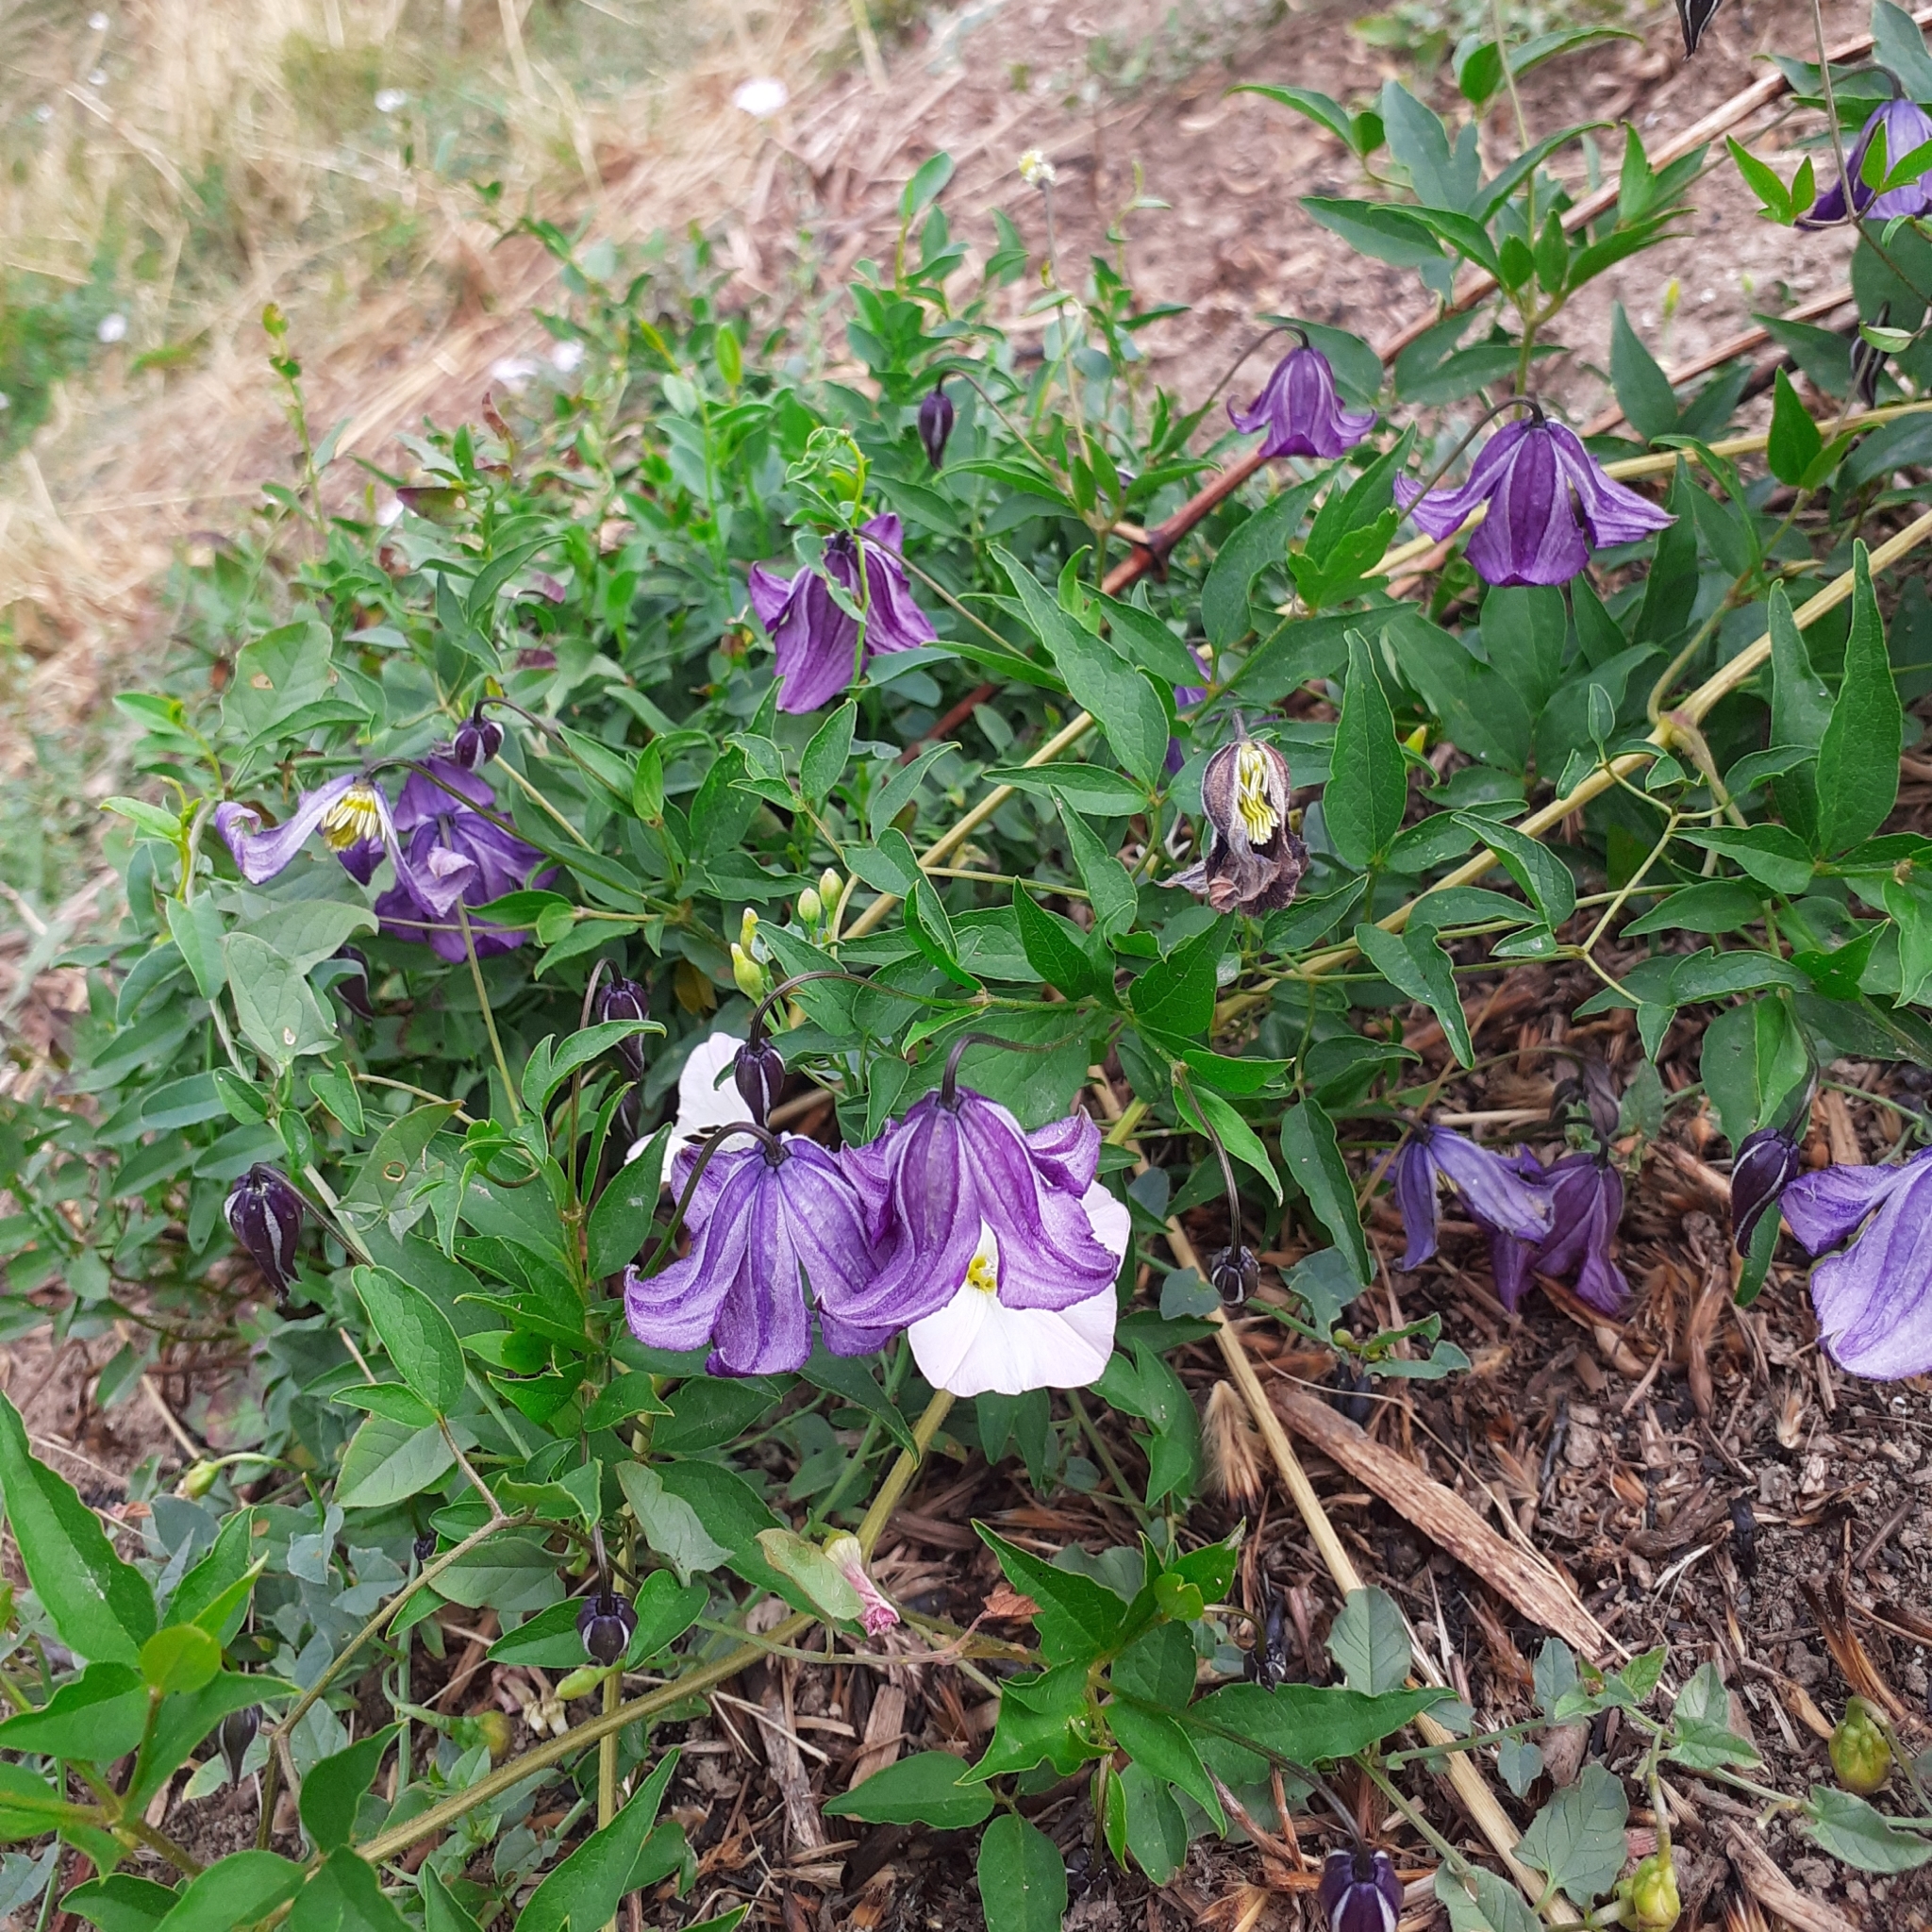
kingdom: Plantae
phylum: Tracheophyta
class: Magnoliopsida
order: Ranunculales
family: Ranunculaceae
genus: Clematis
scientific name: Clematis viticella
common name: Purple clematis
